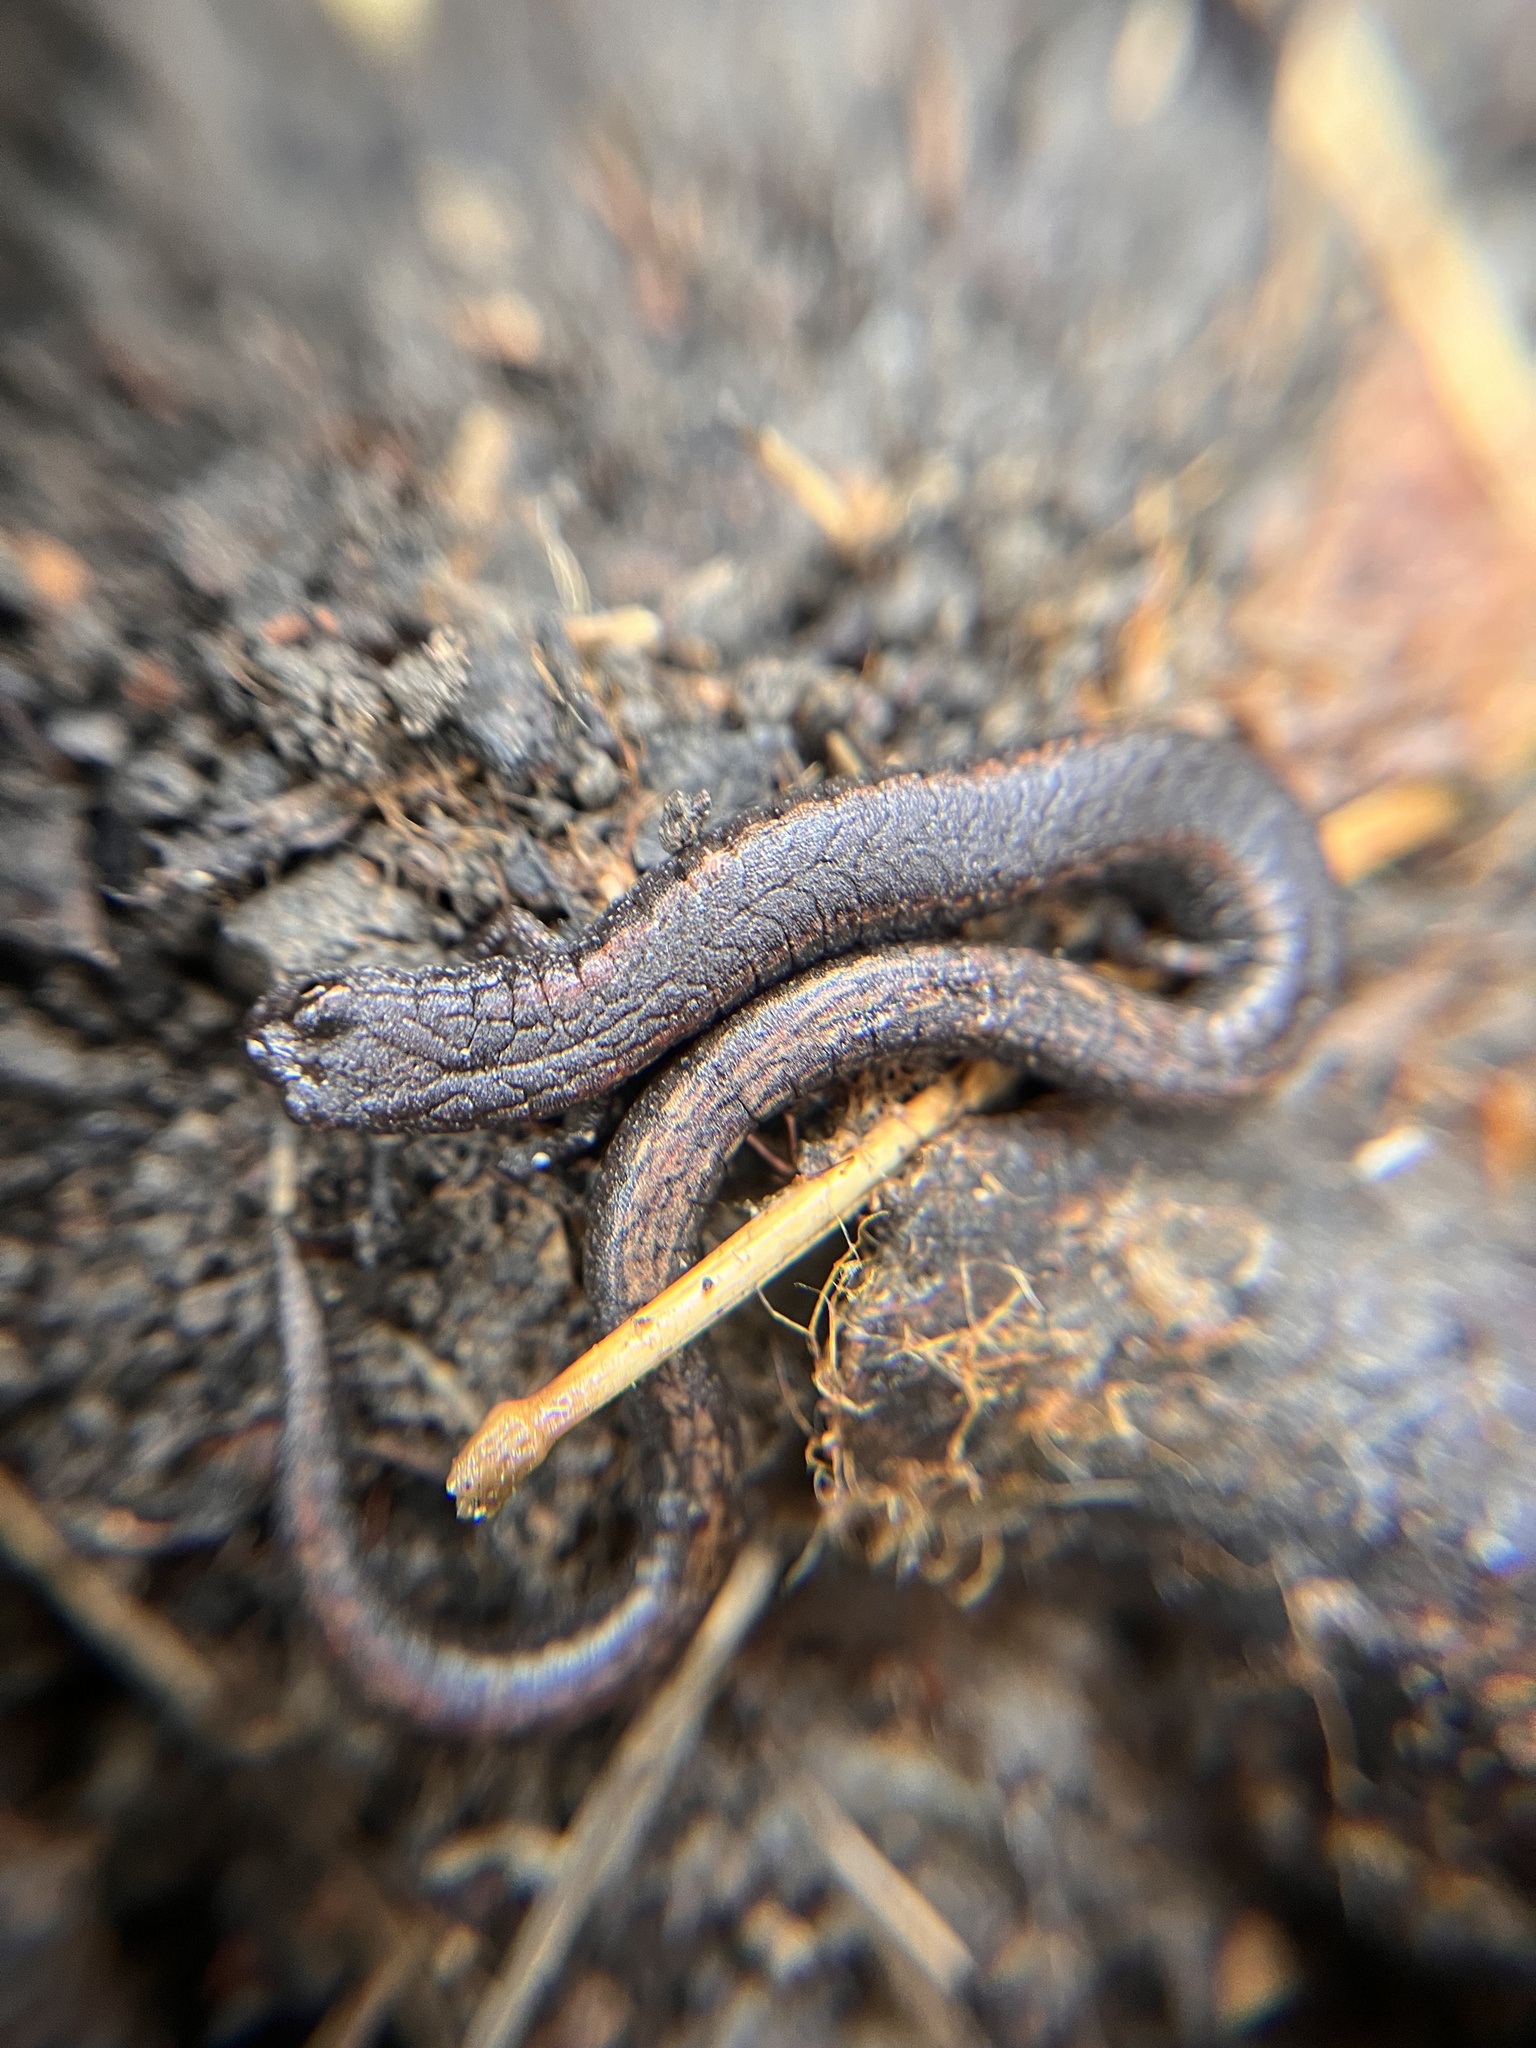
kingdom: Animalia
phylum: Chordata
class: Amphibia
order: Caudata
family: Plethodontidae
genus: Batrachoseps
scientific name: Batrachoseps attenuatus
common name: California slender salamander
